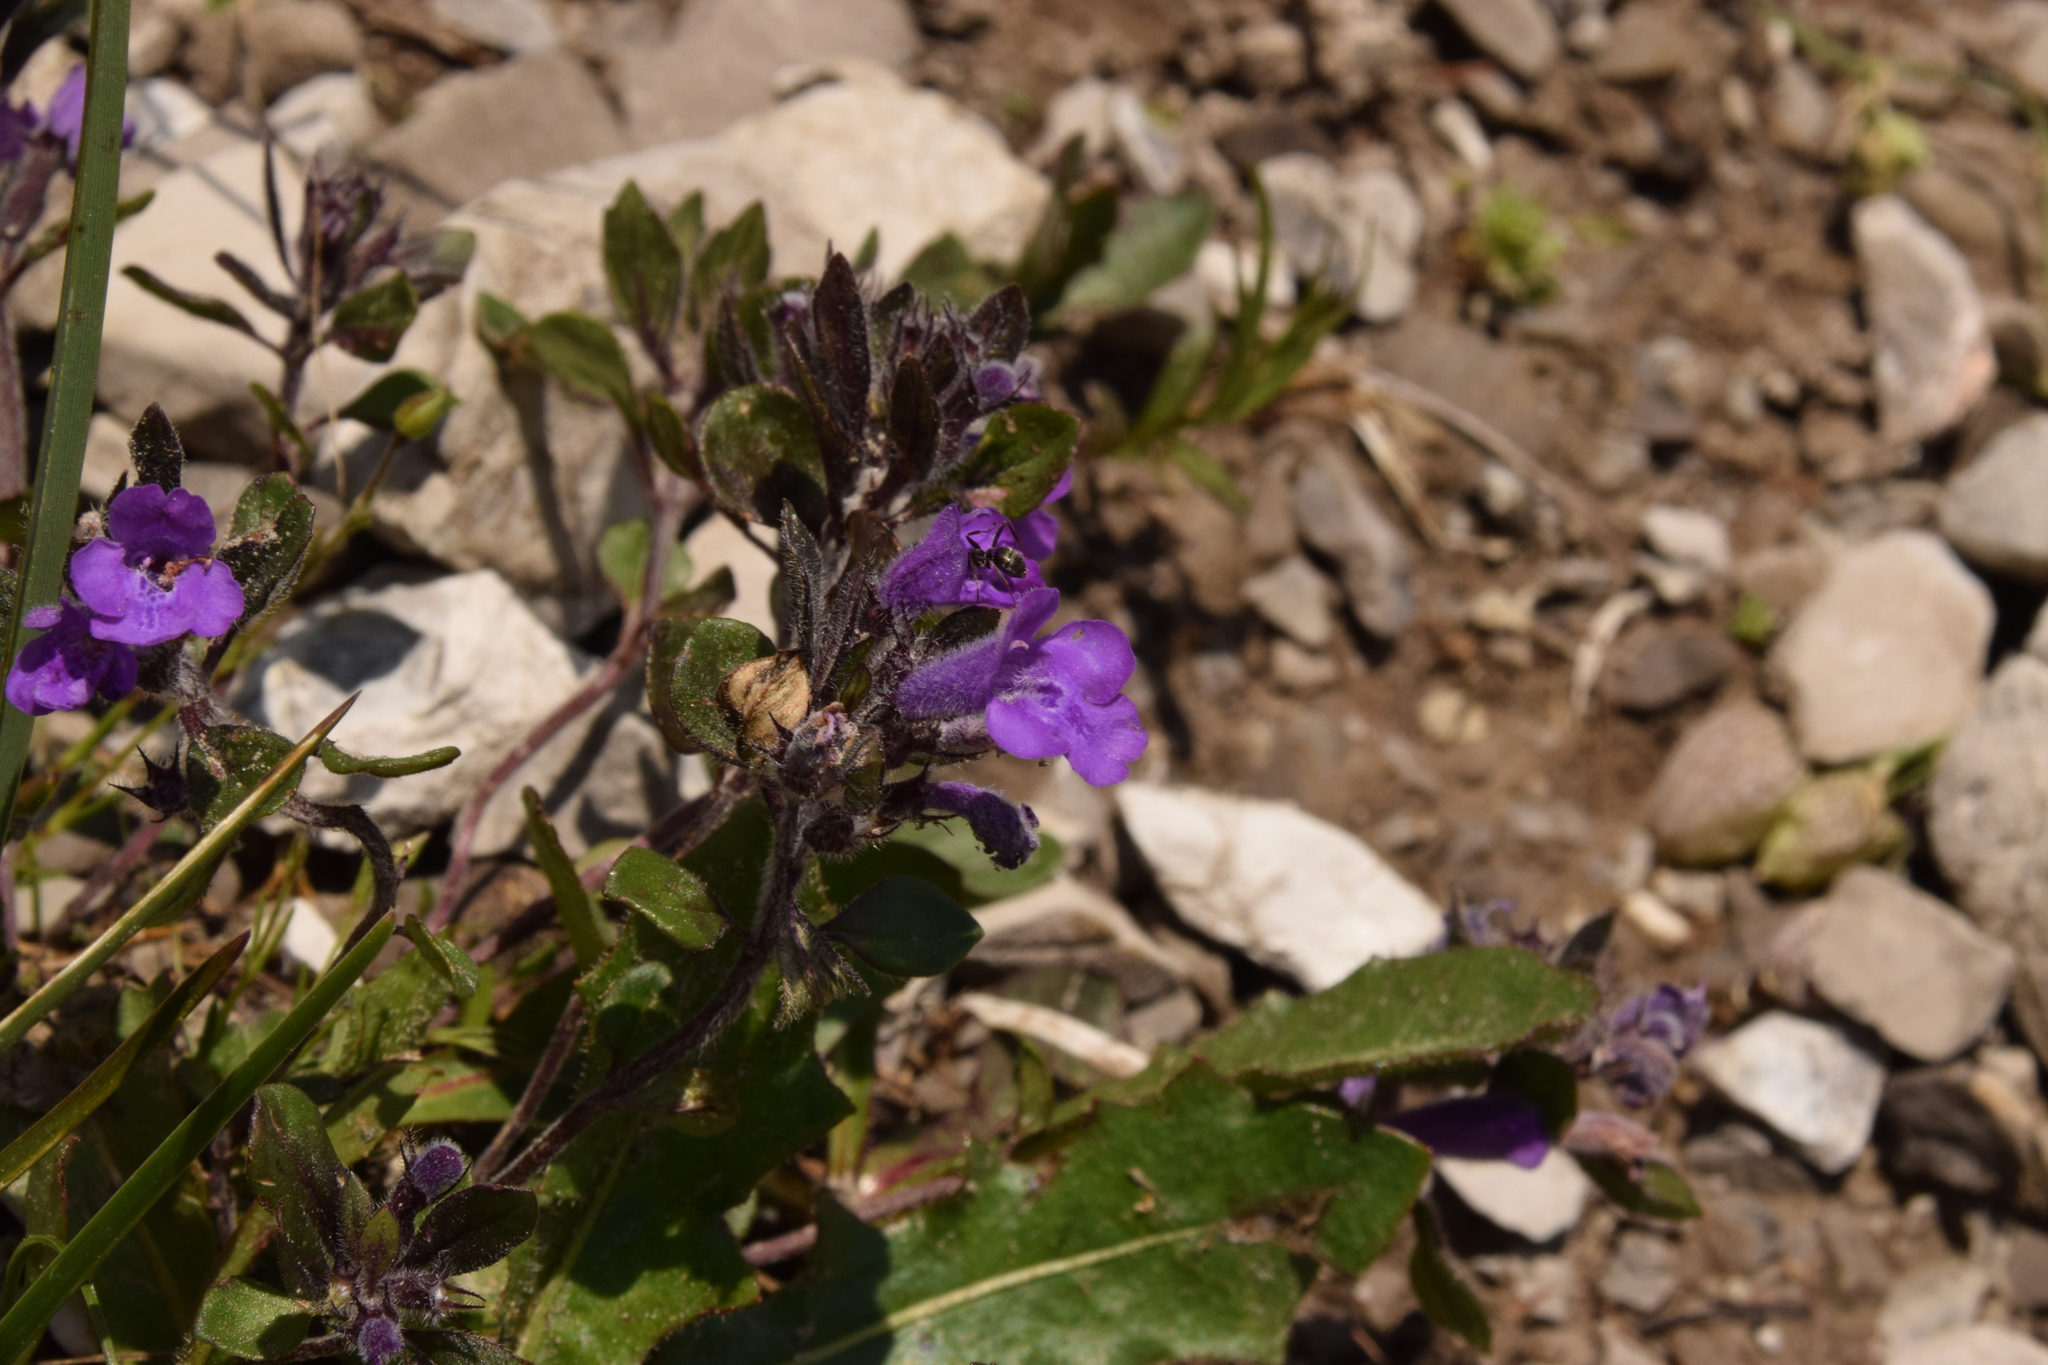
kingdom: Plantae
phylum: Tracheophyta
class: Magnoliopsida
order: Lamiales
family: Lamiaceae
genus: Clinopodium
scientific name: Clinopodium alpinum
